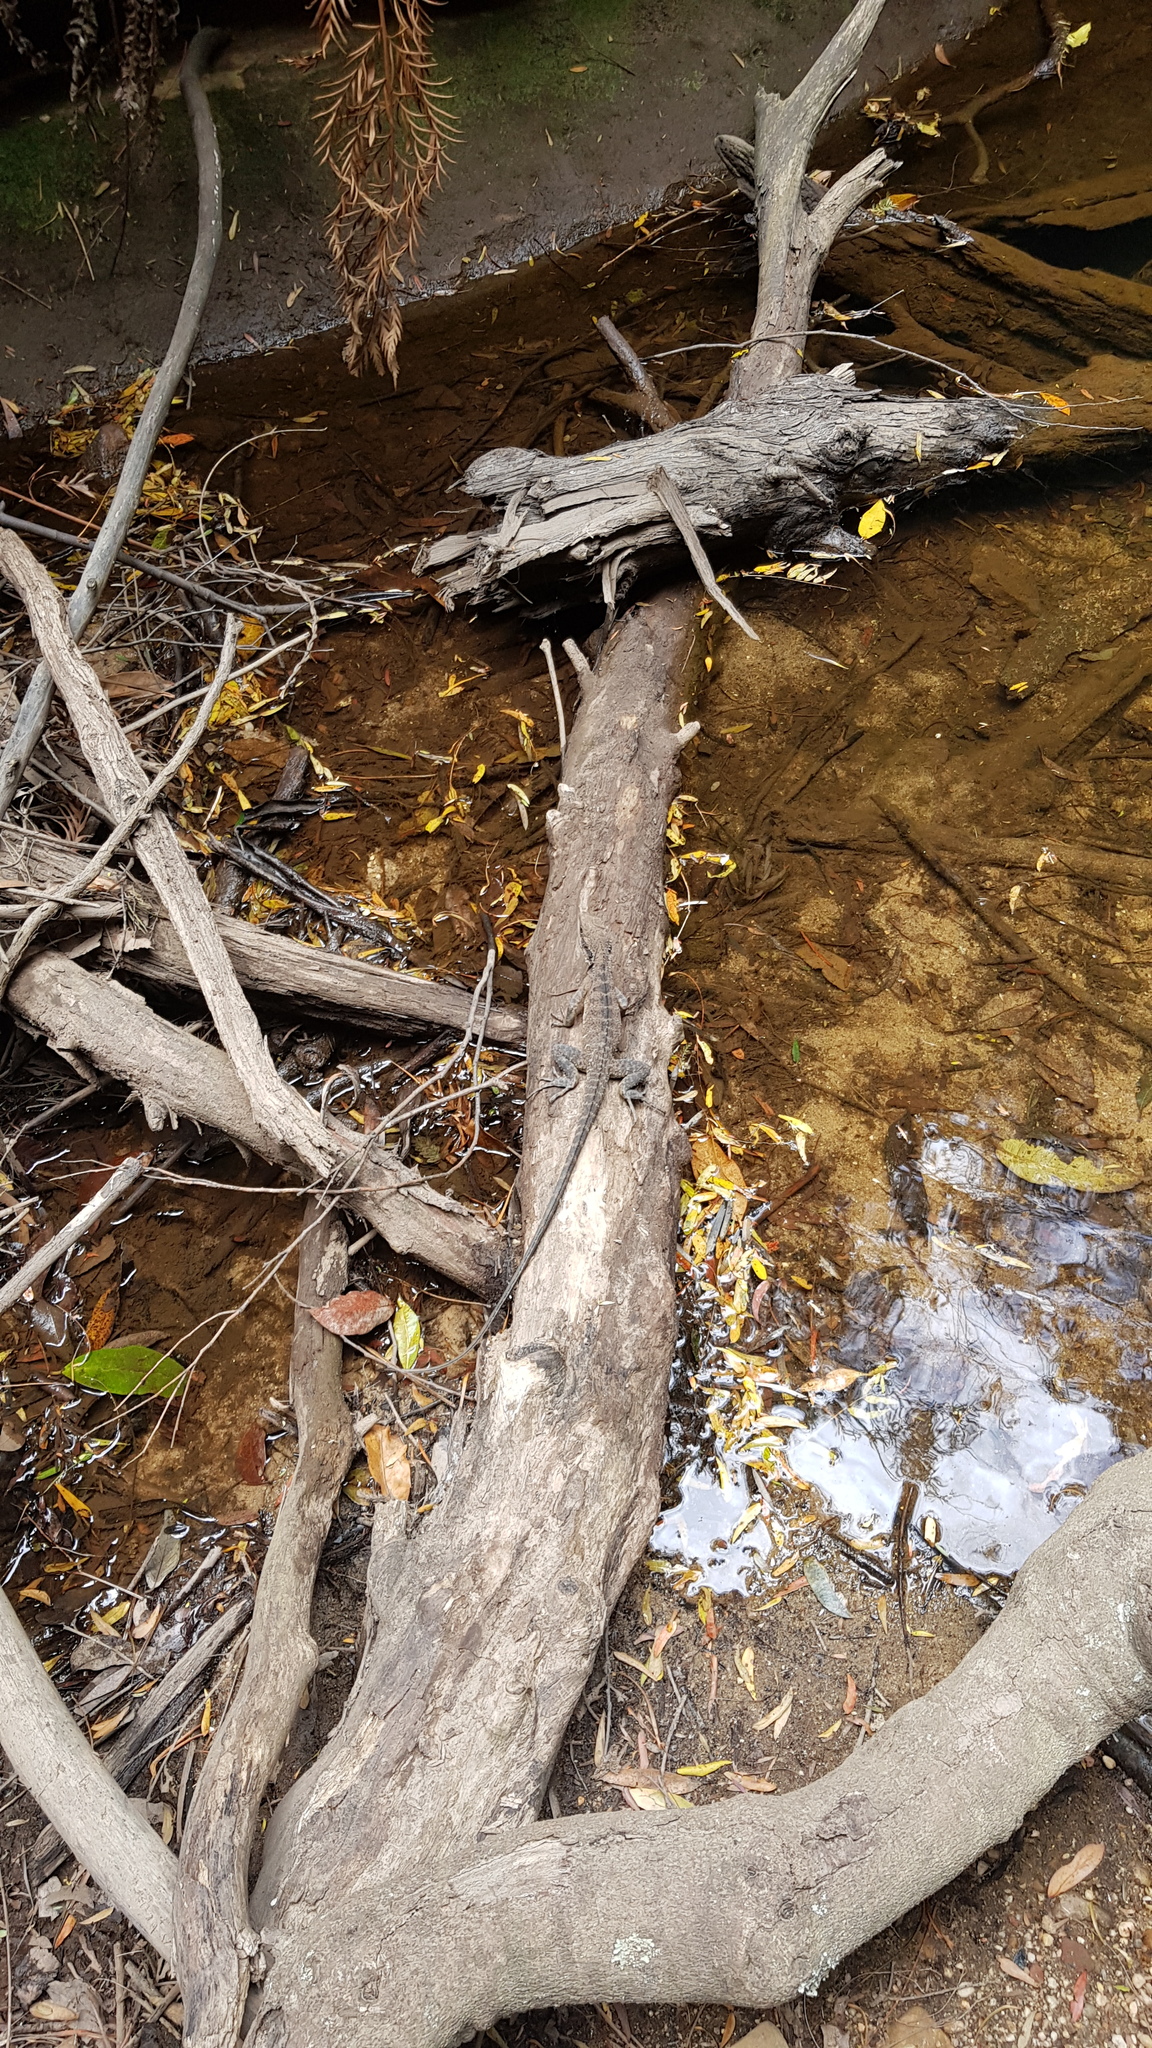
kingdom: Animalia
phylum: Chordata
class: Squamata
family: Agamidae
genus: Intellagama
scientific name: Intellagama lesueurii
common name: Eastern water dragon
